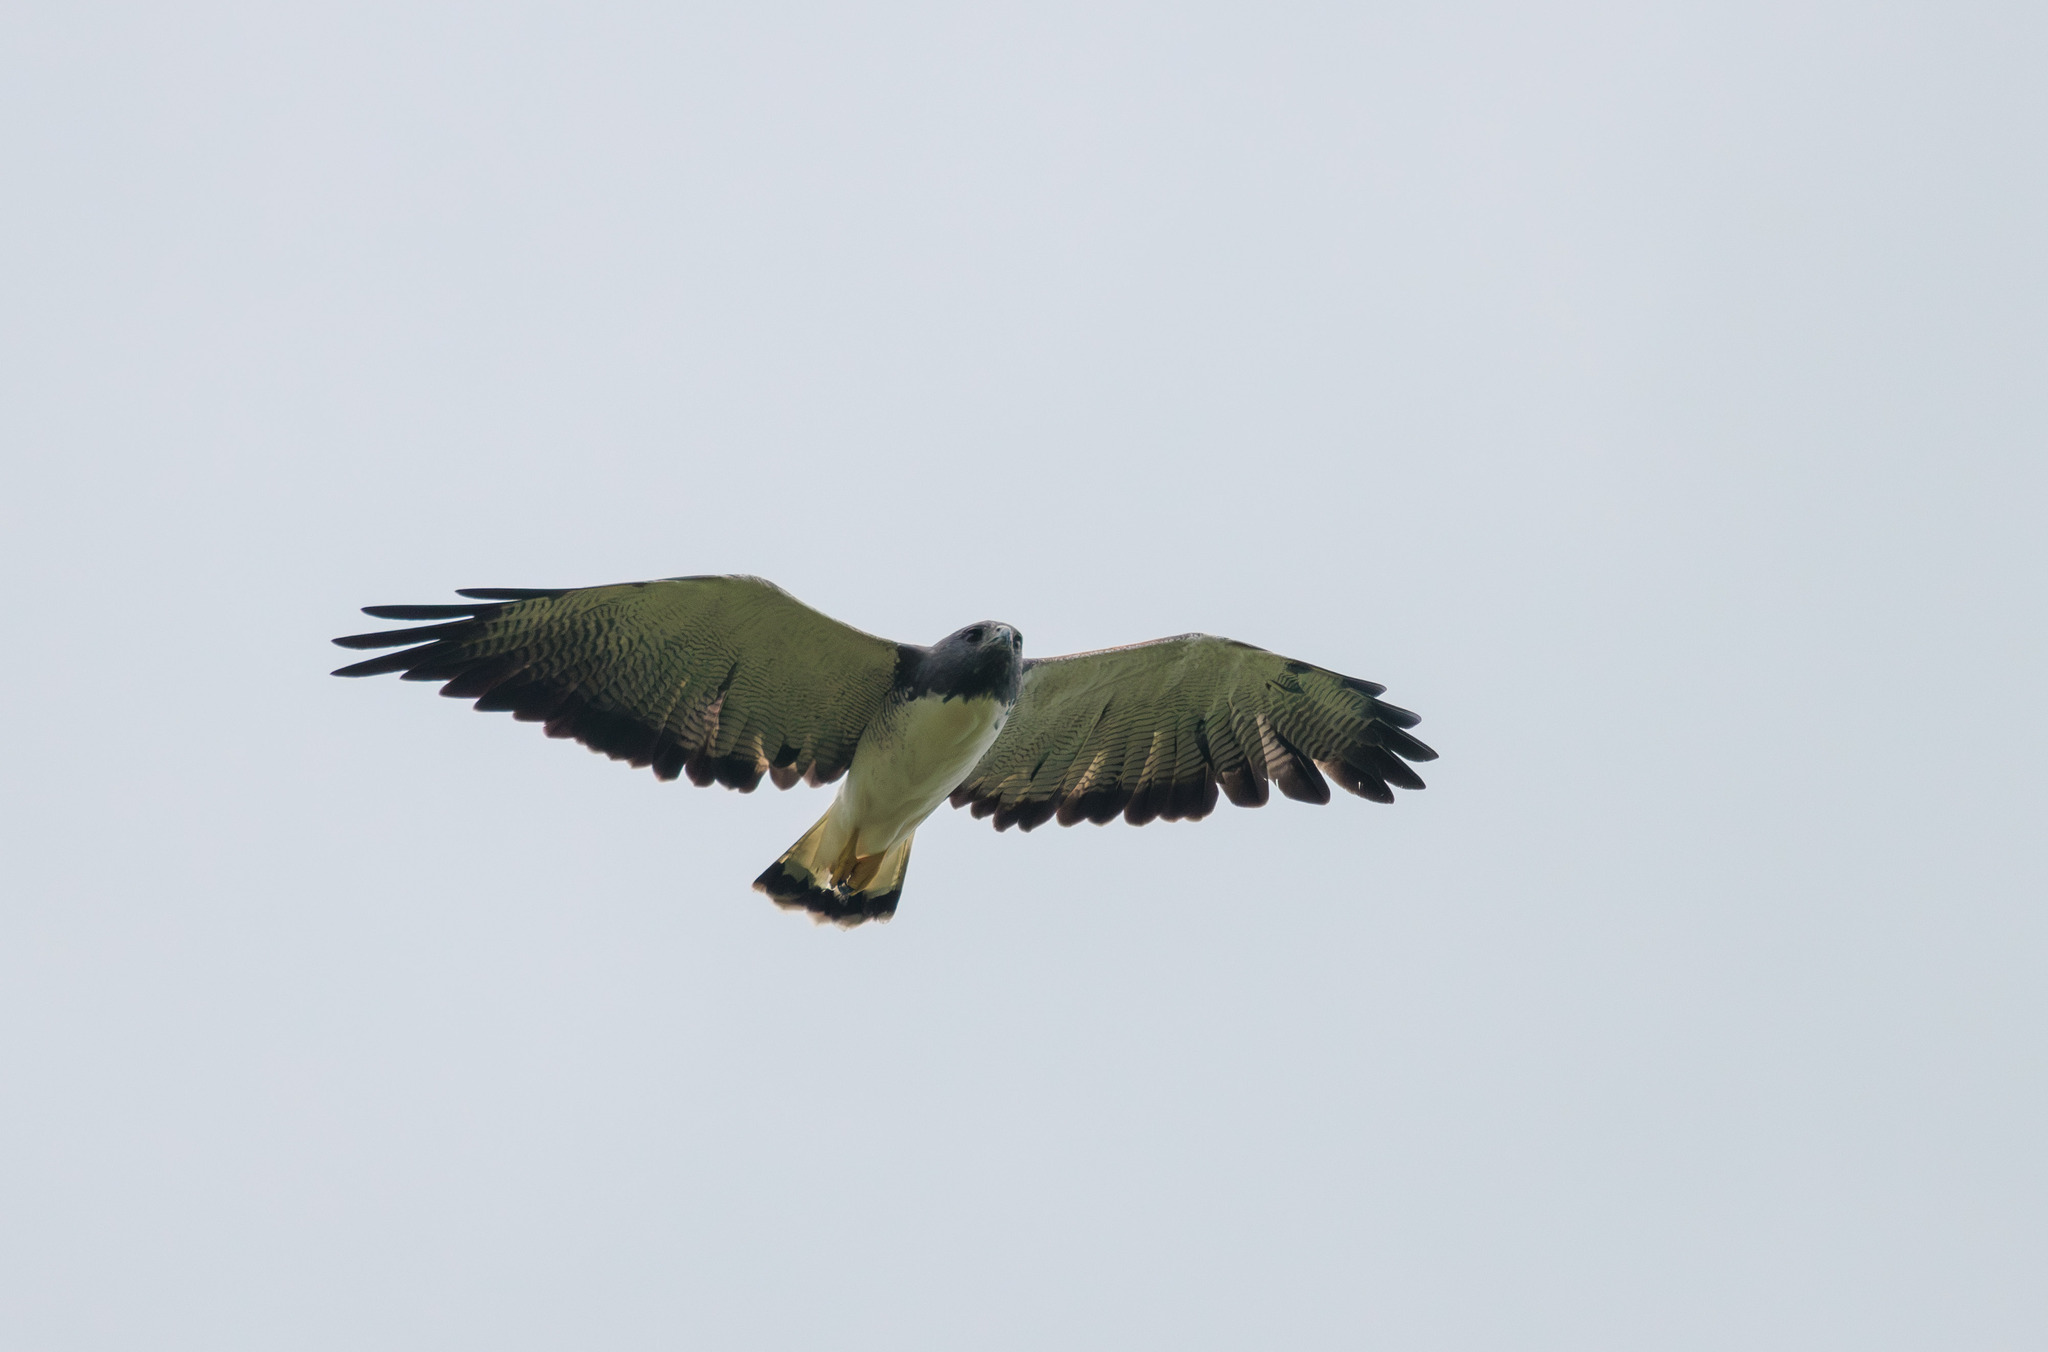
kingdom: Animalia
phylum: Chordata
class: Aves
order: Accipitriformes
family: Accipitridae
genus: Buteo
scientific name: Buteo albicaudatus
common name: White-tailed hawk
